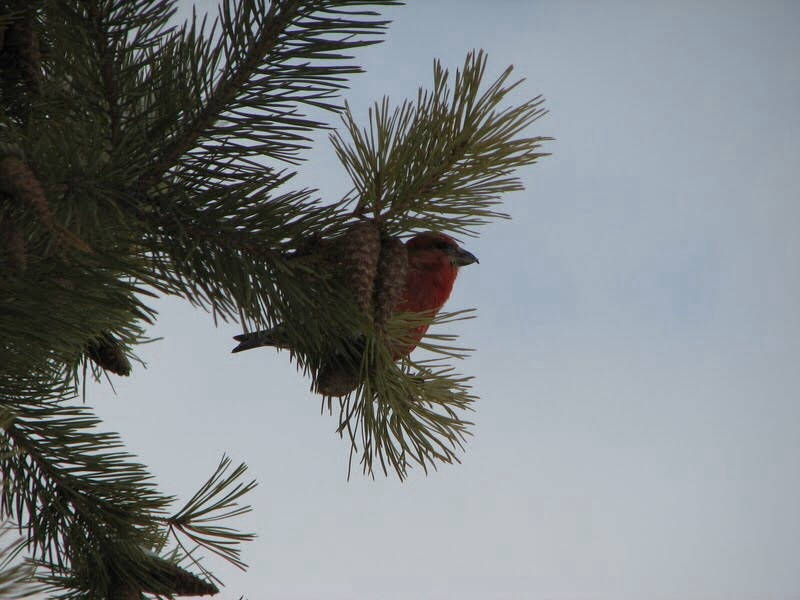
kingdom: Animalia
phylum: Chordata
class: Aves
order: Passeriformes
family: Fringillidae
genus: Loxia
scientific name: Loxia curvirostra
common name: Red crossbill
